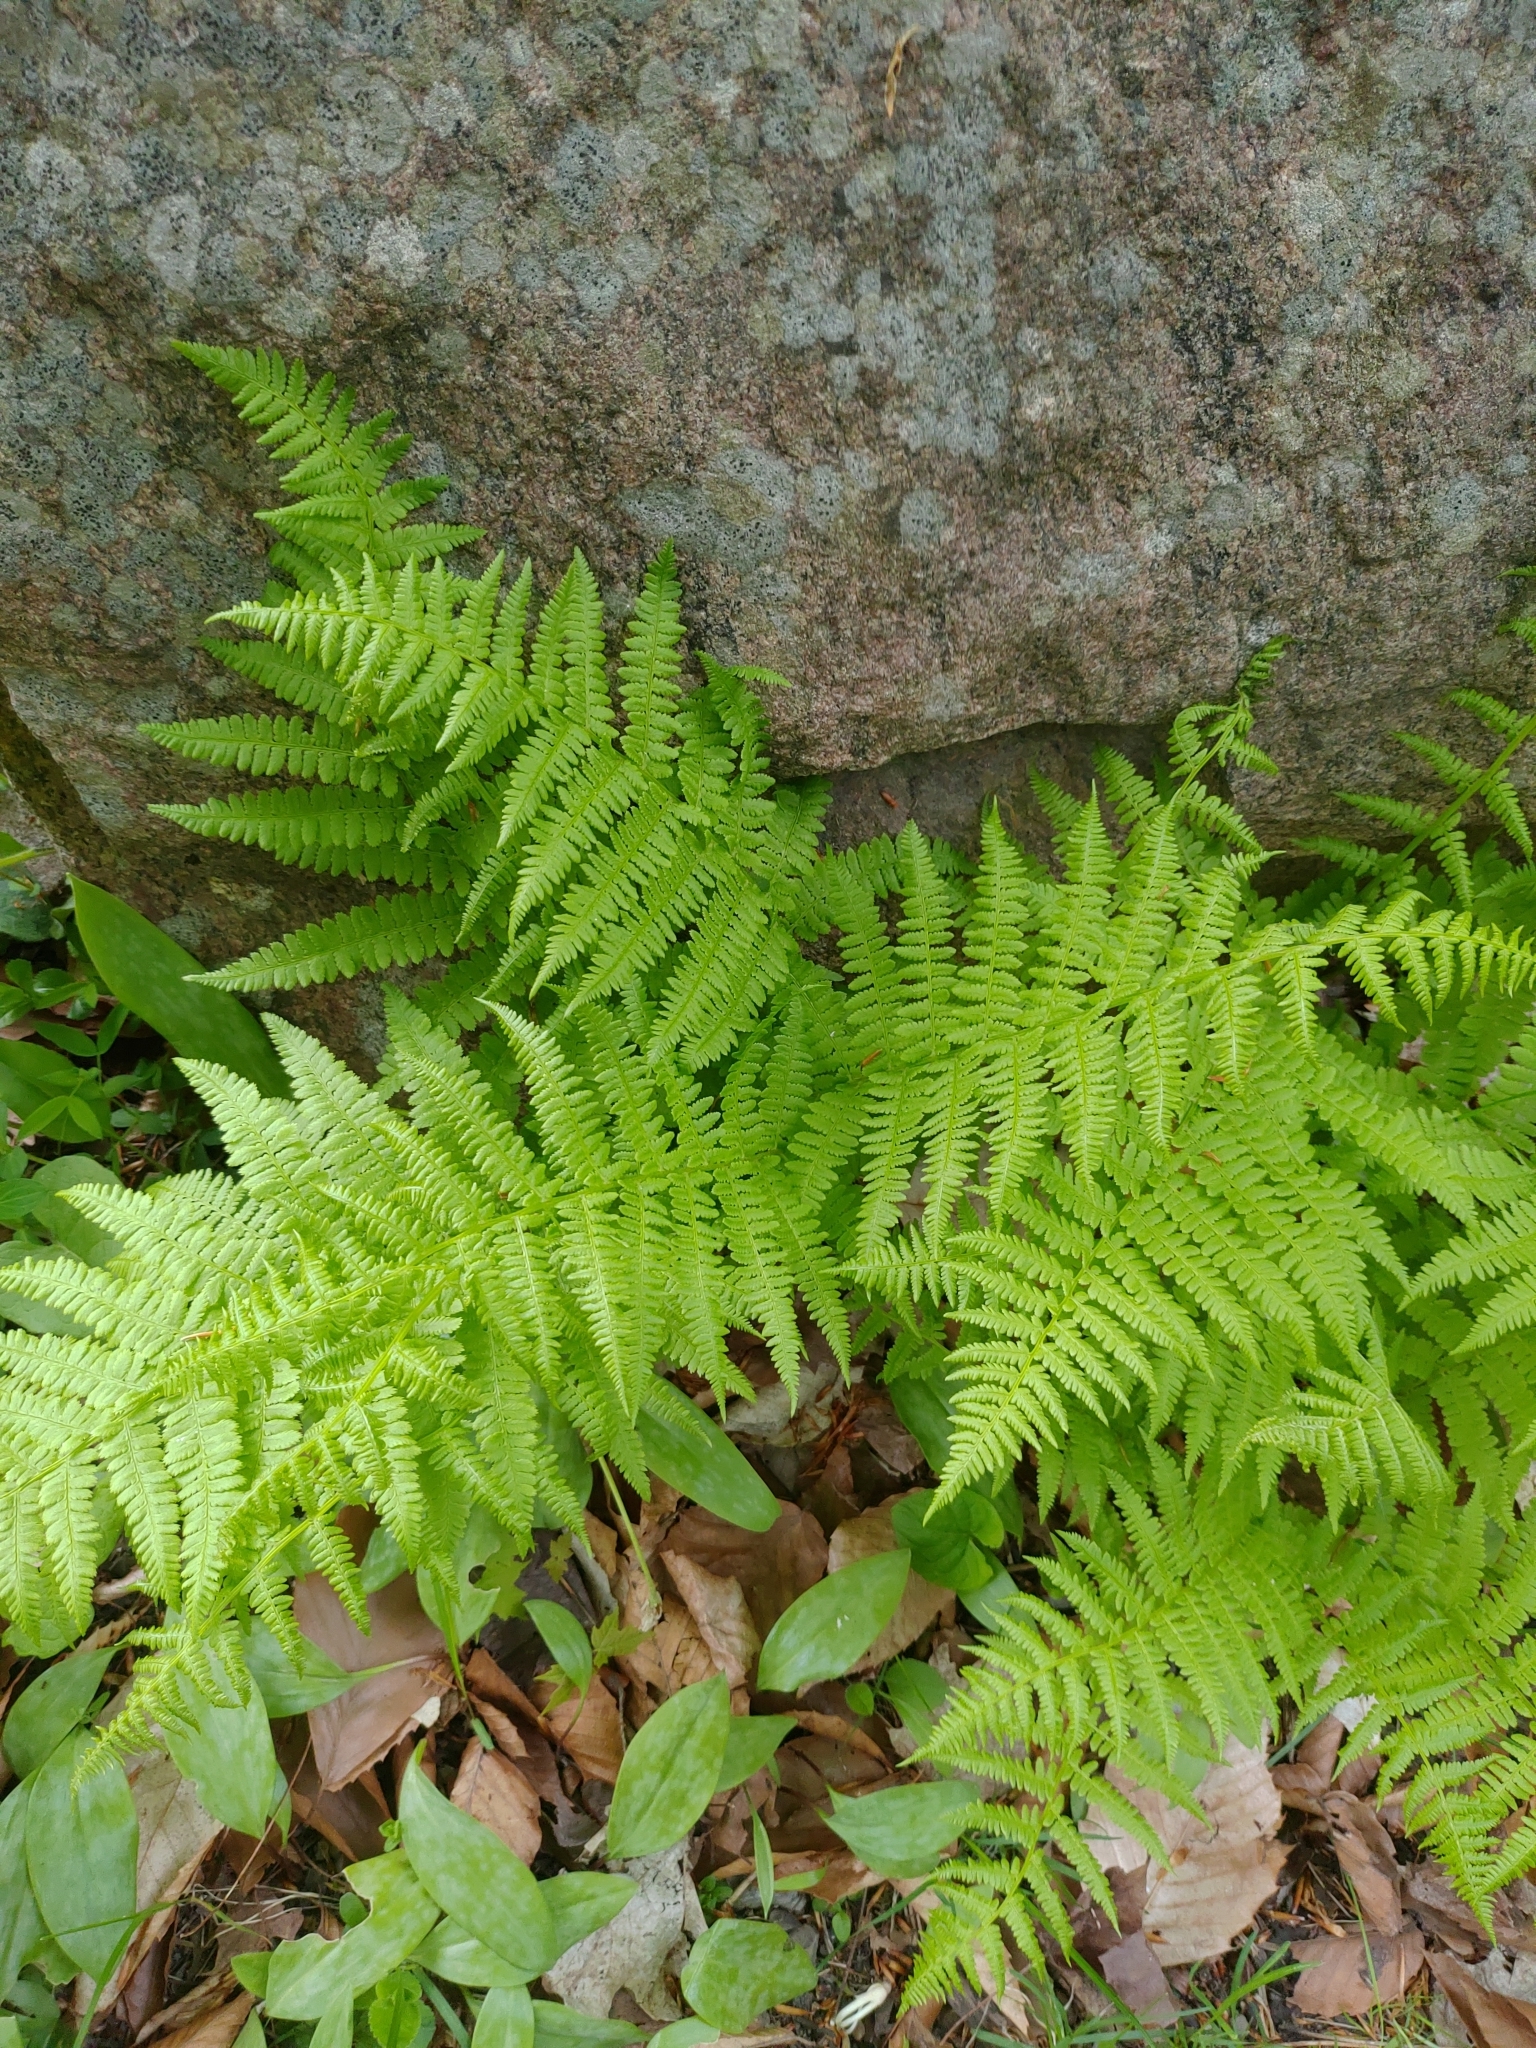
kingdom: Plantae
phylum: Tracheophyta
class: Polypodiopsida
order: Polypodiales
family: Athyriaceae
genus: Athyrium
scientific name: Athyrium angustum
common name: Northern lady fern
